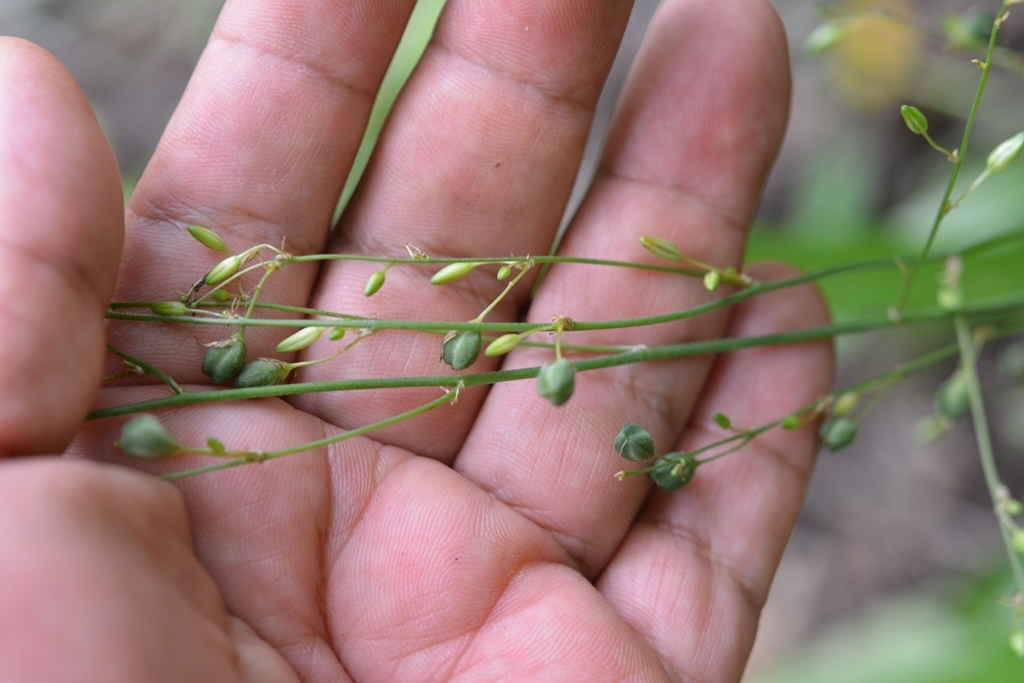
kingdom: Plantae
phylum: Tracheophyta
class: Liliopsida
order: Asparagales
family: Asparagaceae
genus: Echeandia
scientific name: Echeandia parviflora
